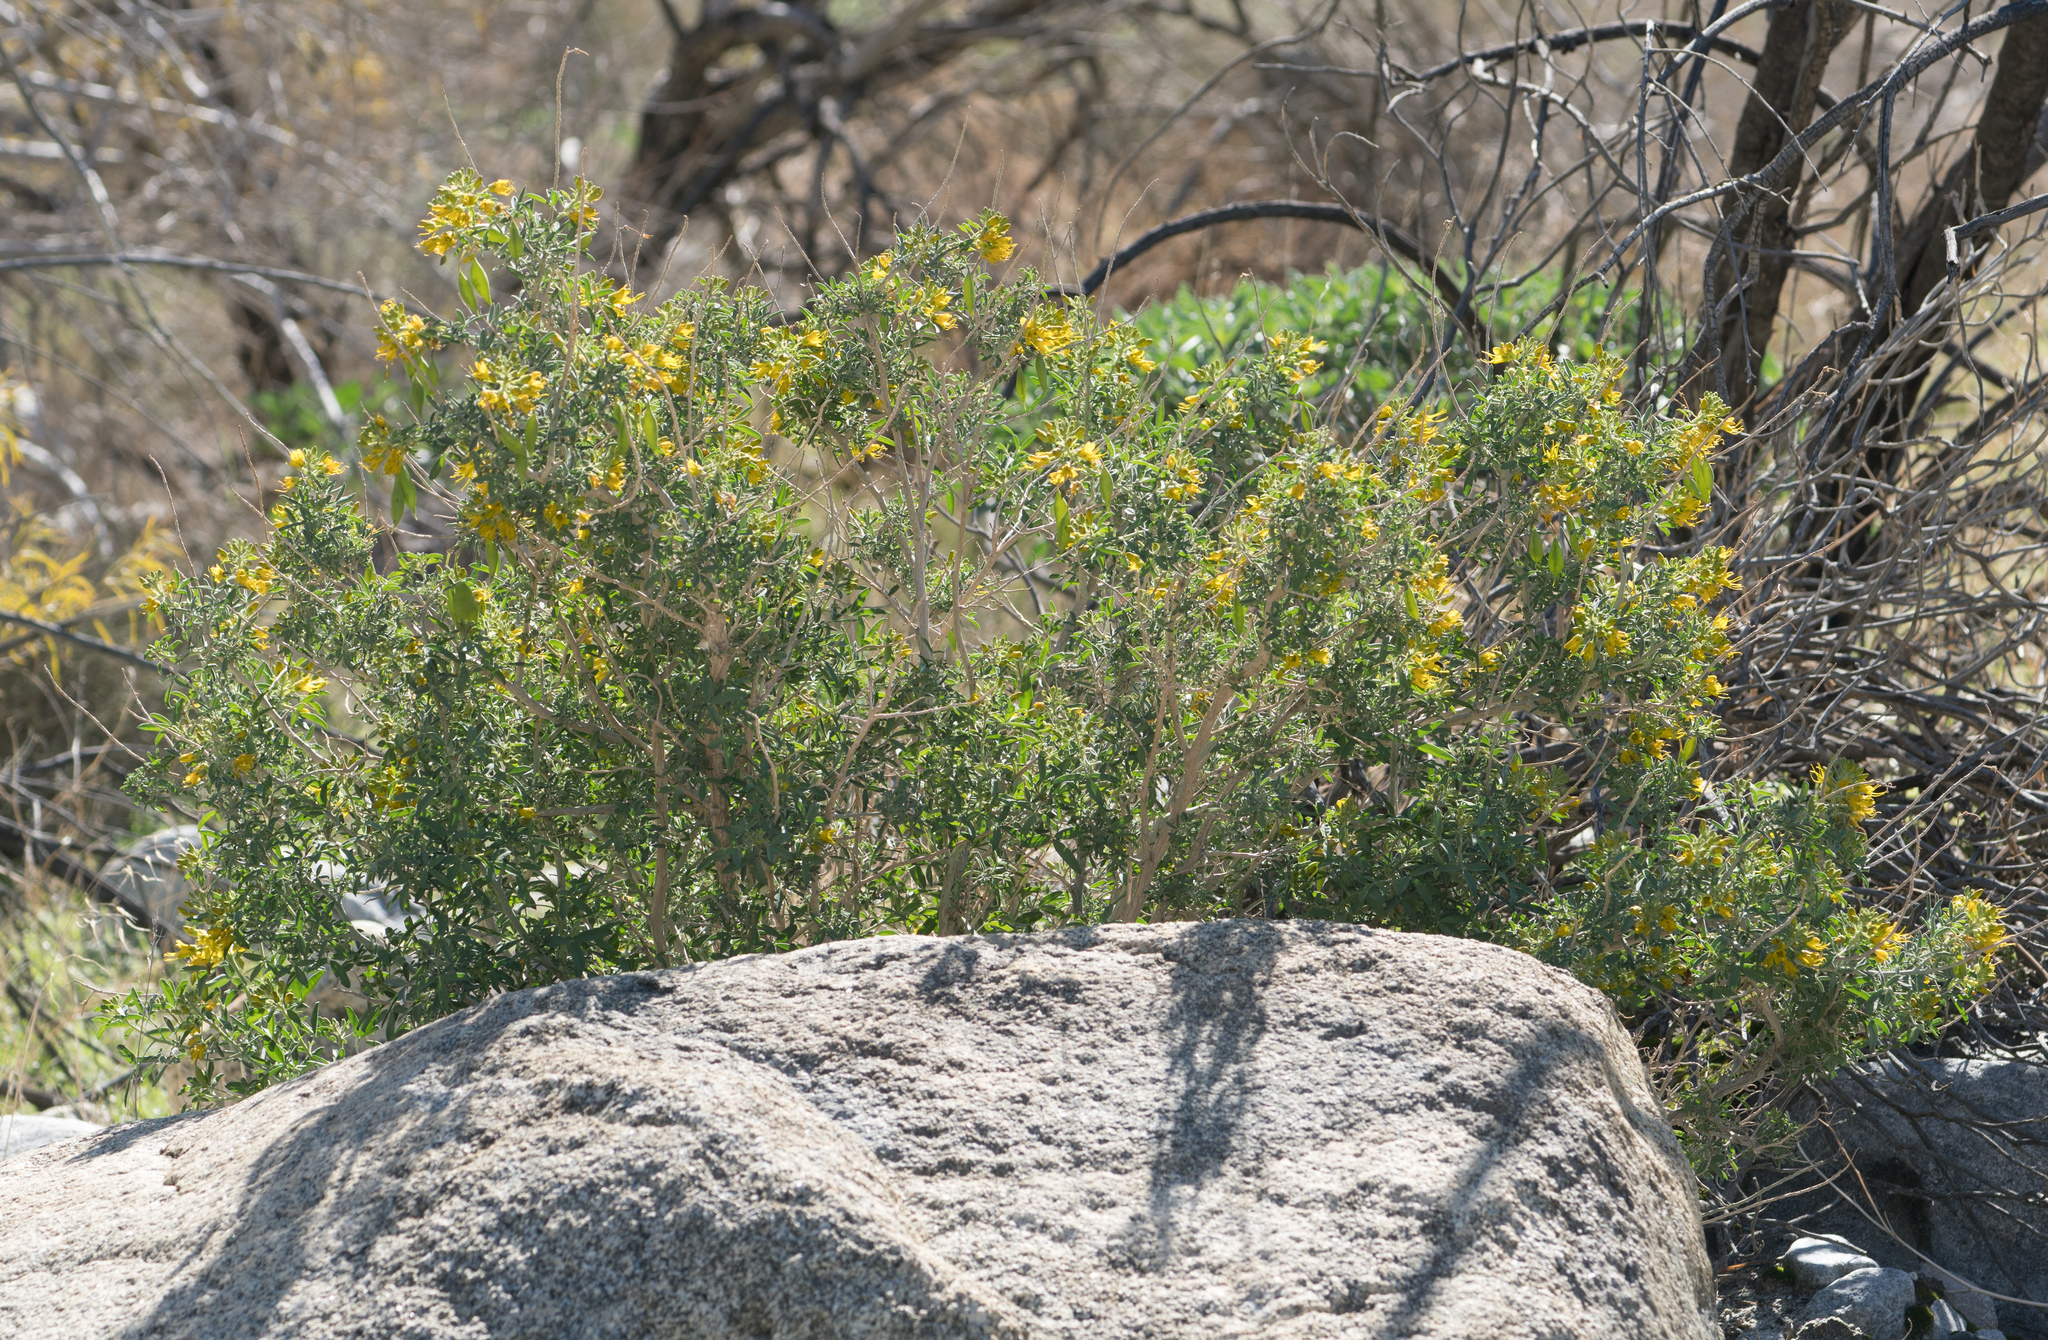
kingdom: Plantae
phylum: Tracheophyta
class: Magnoliopsida
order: Brassicales
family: Cleomaceae
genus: Cleomella
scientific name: Cleomella arborea
